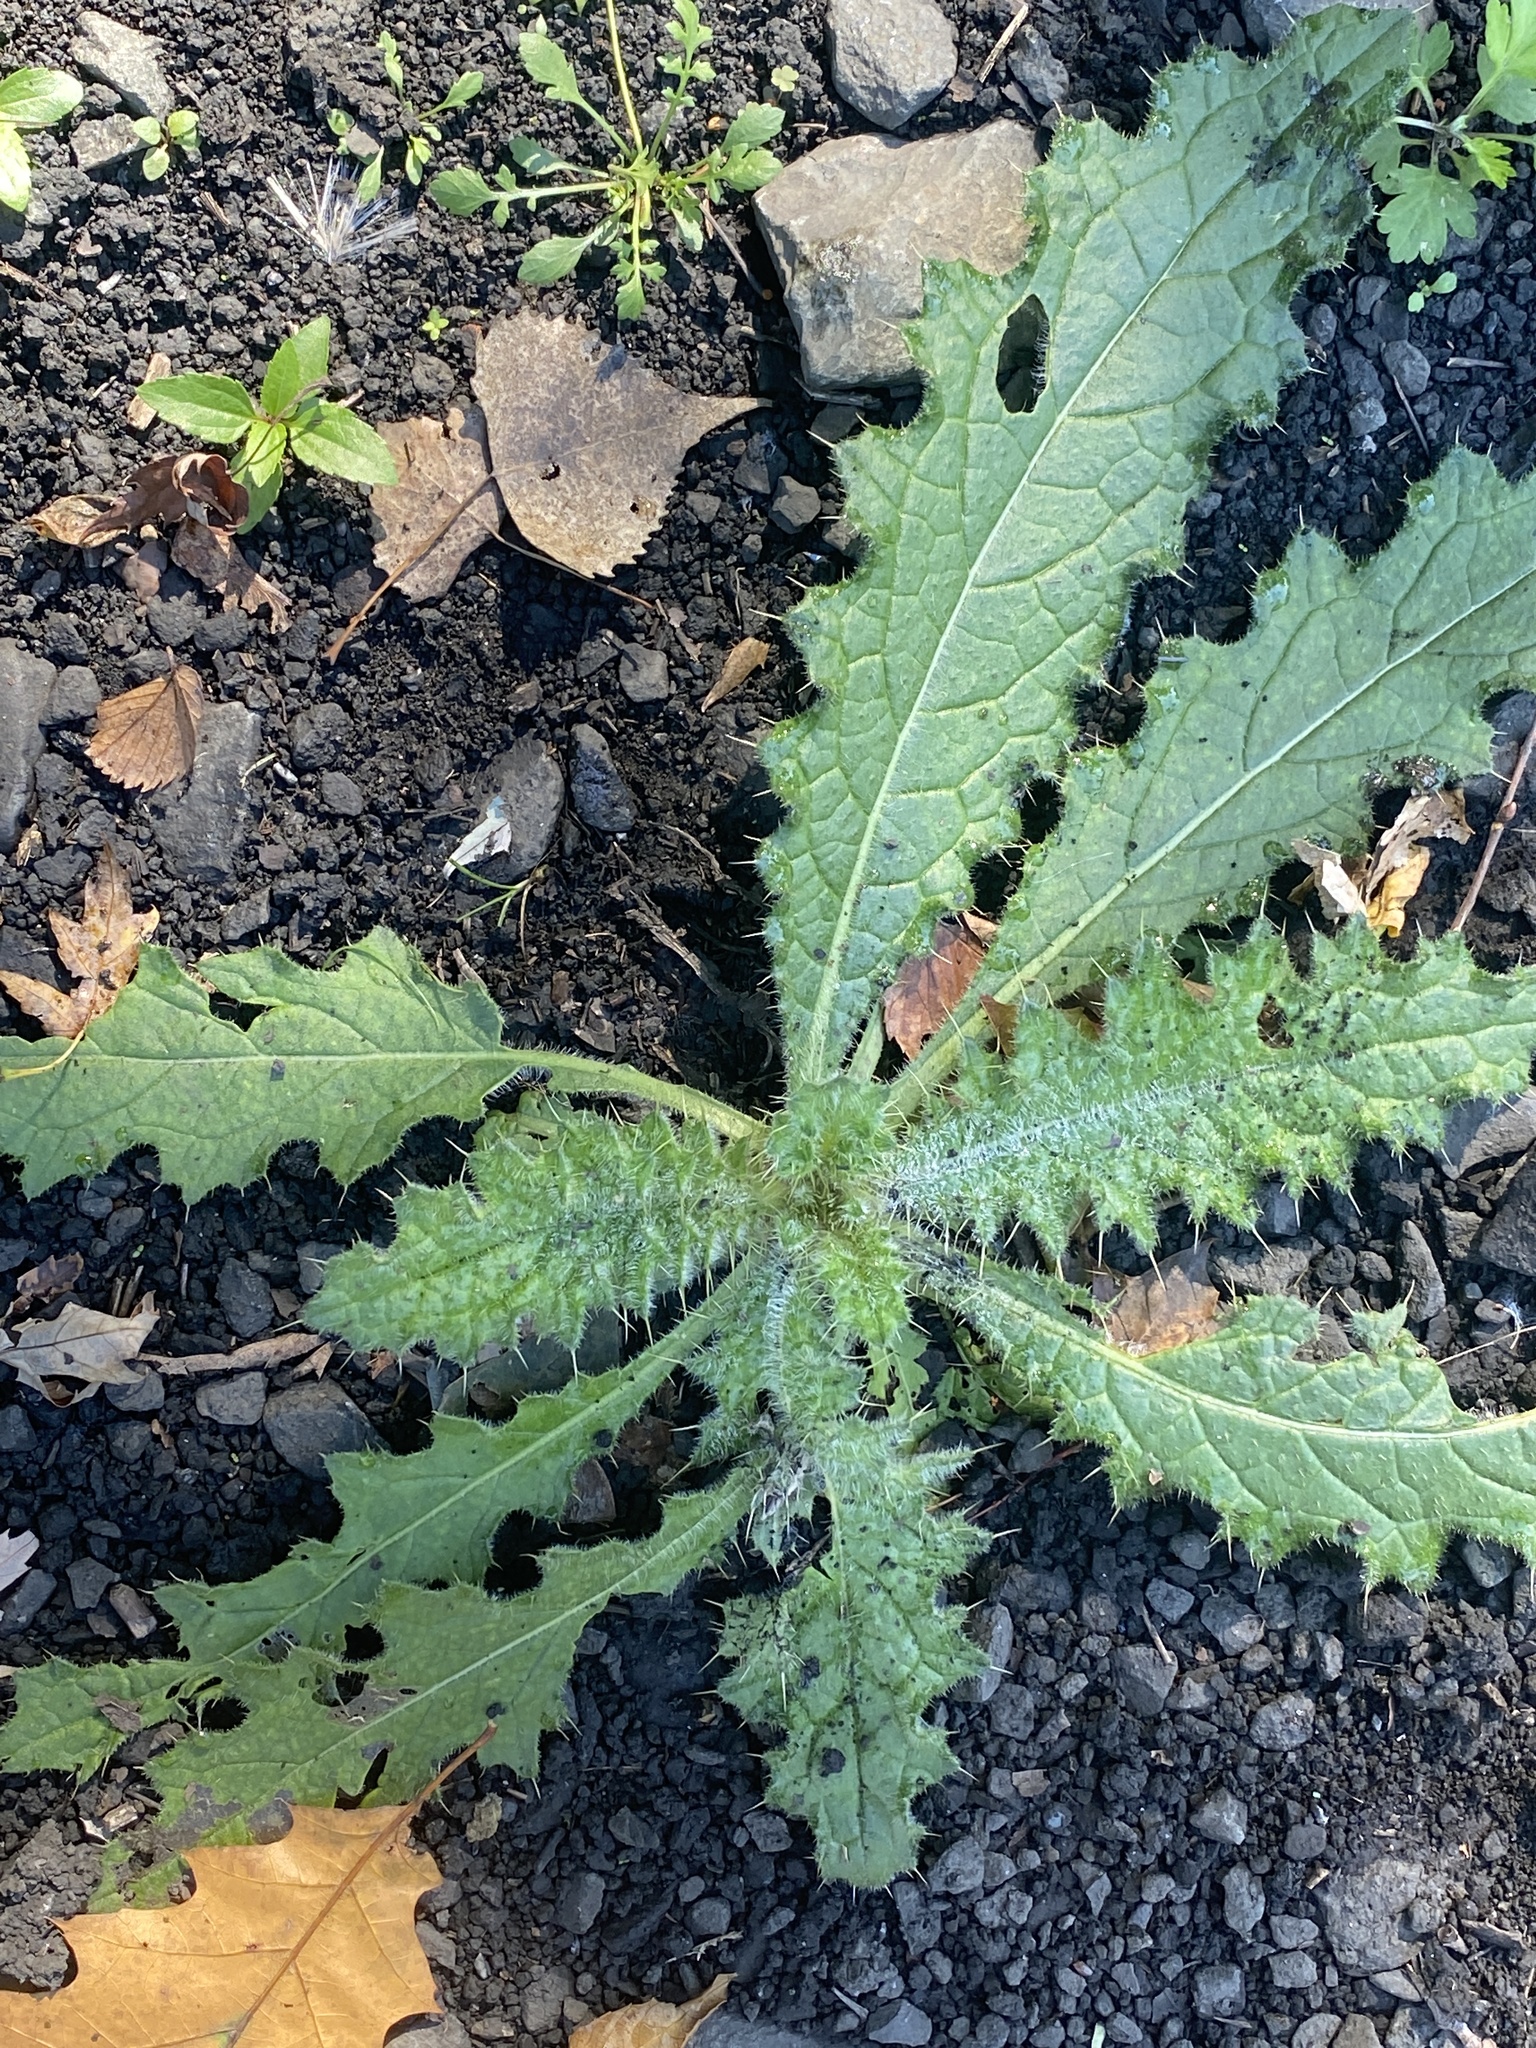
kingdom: Plantae
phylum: Tracheophyta
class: Magnoliopsida
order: Asterales
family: Asteraceae
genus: Cirsium
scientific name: Cirsium vulgare
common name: Bull thistle
